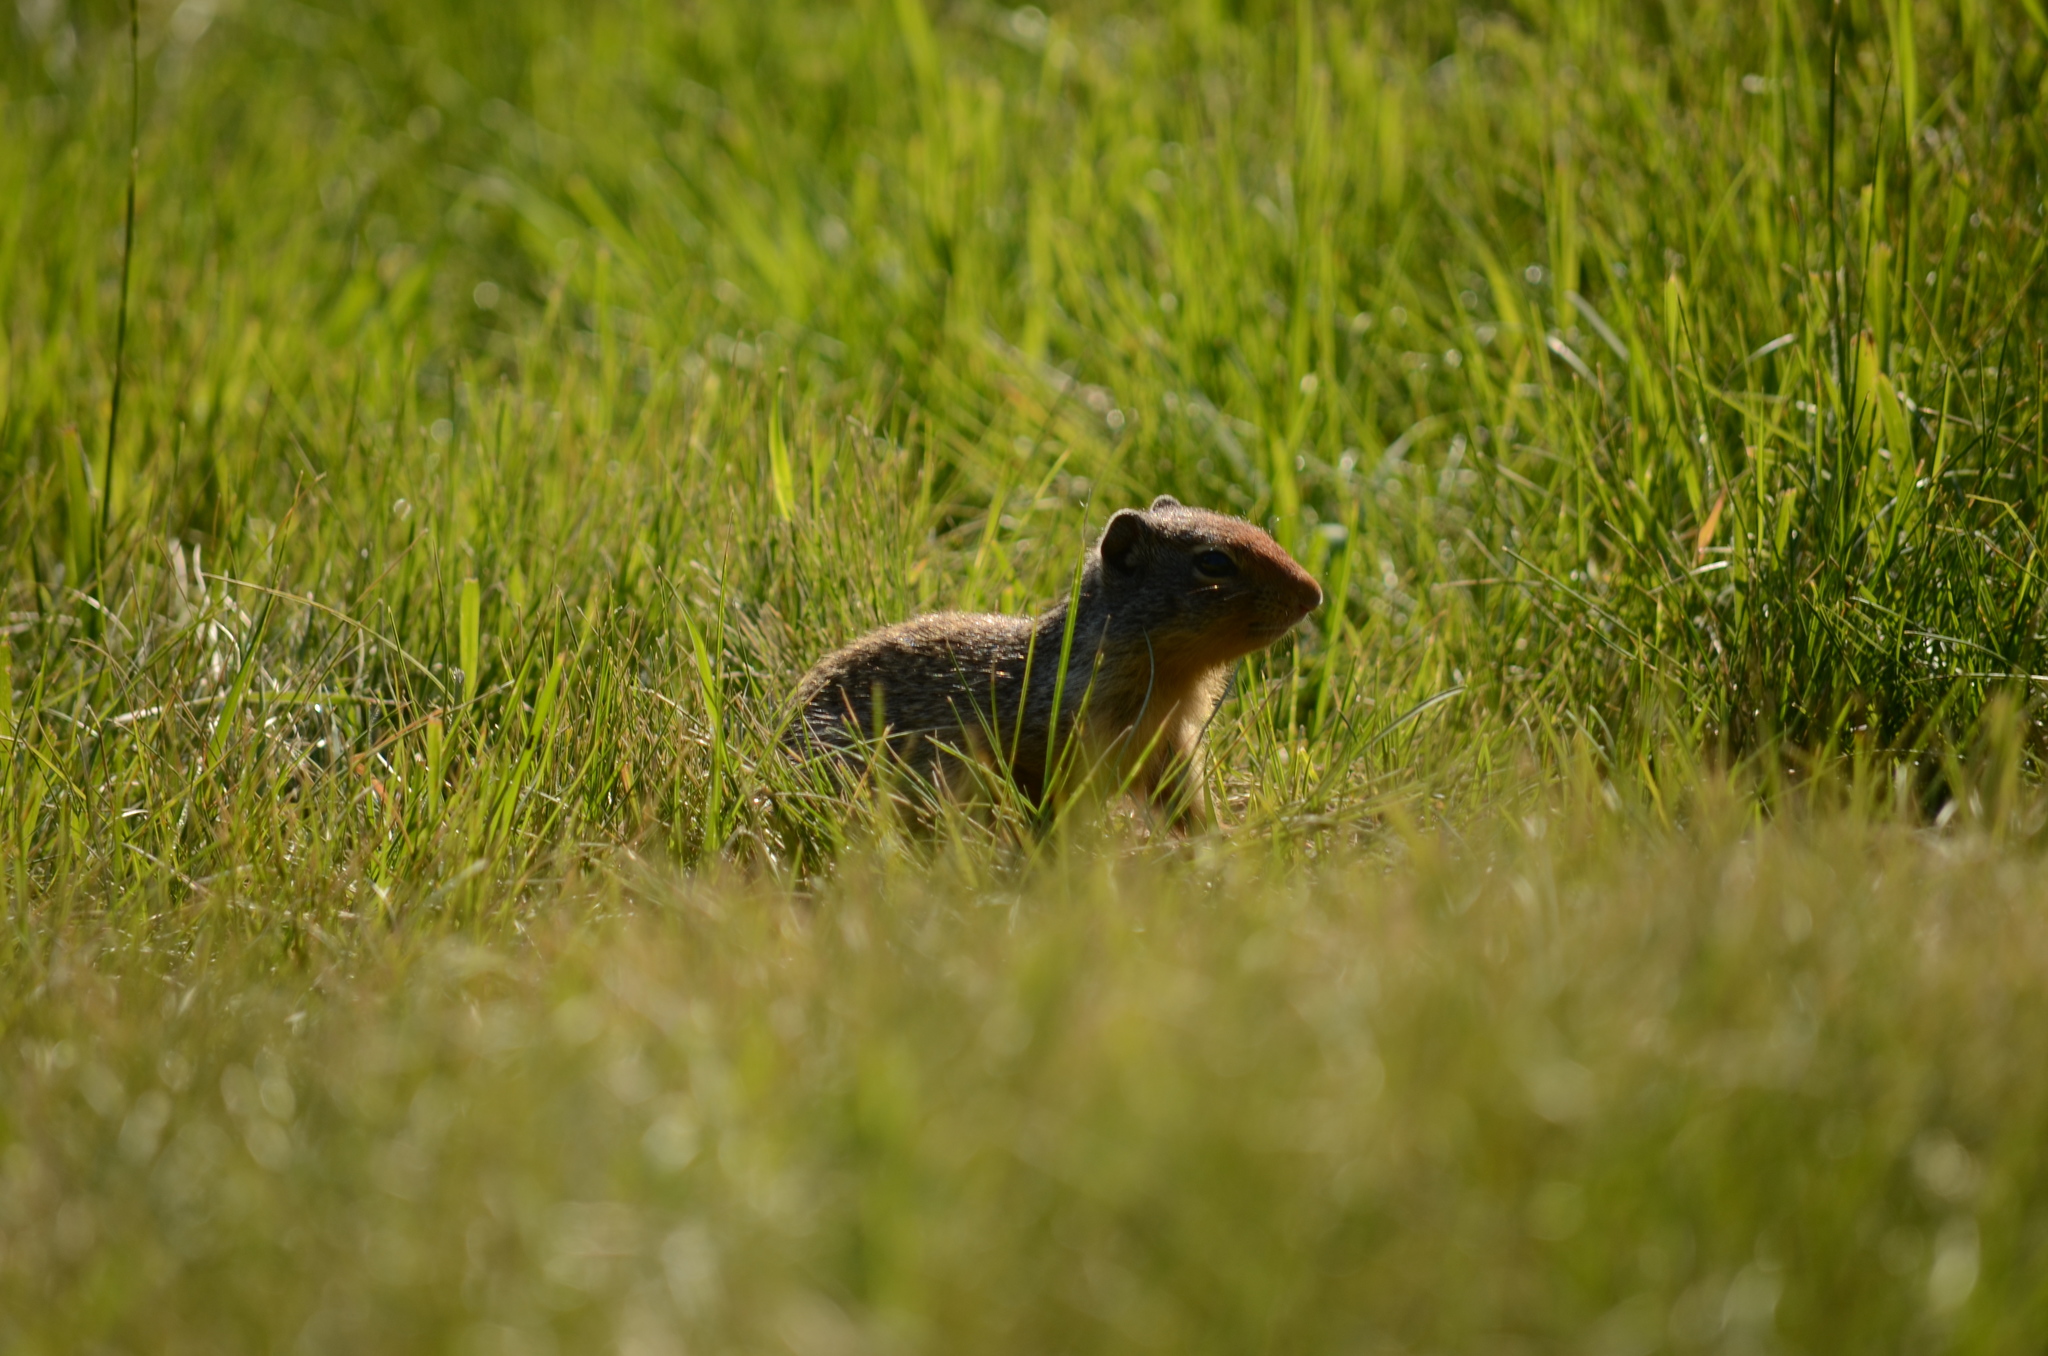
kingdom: Animalia
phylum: Chordata
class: Mammalia
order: Rodentia
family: Sciuridae
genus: Urocitellus
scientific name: Urocitellus columbianus
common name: Columbian ground squirrel
